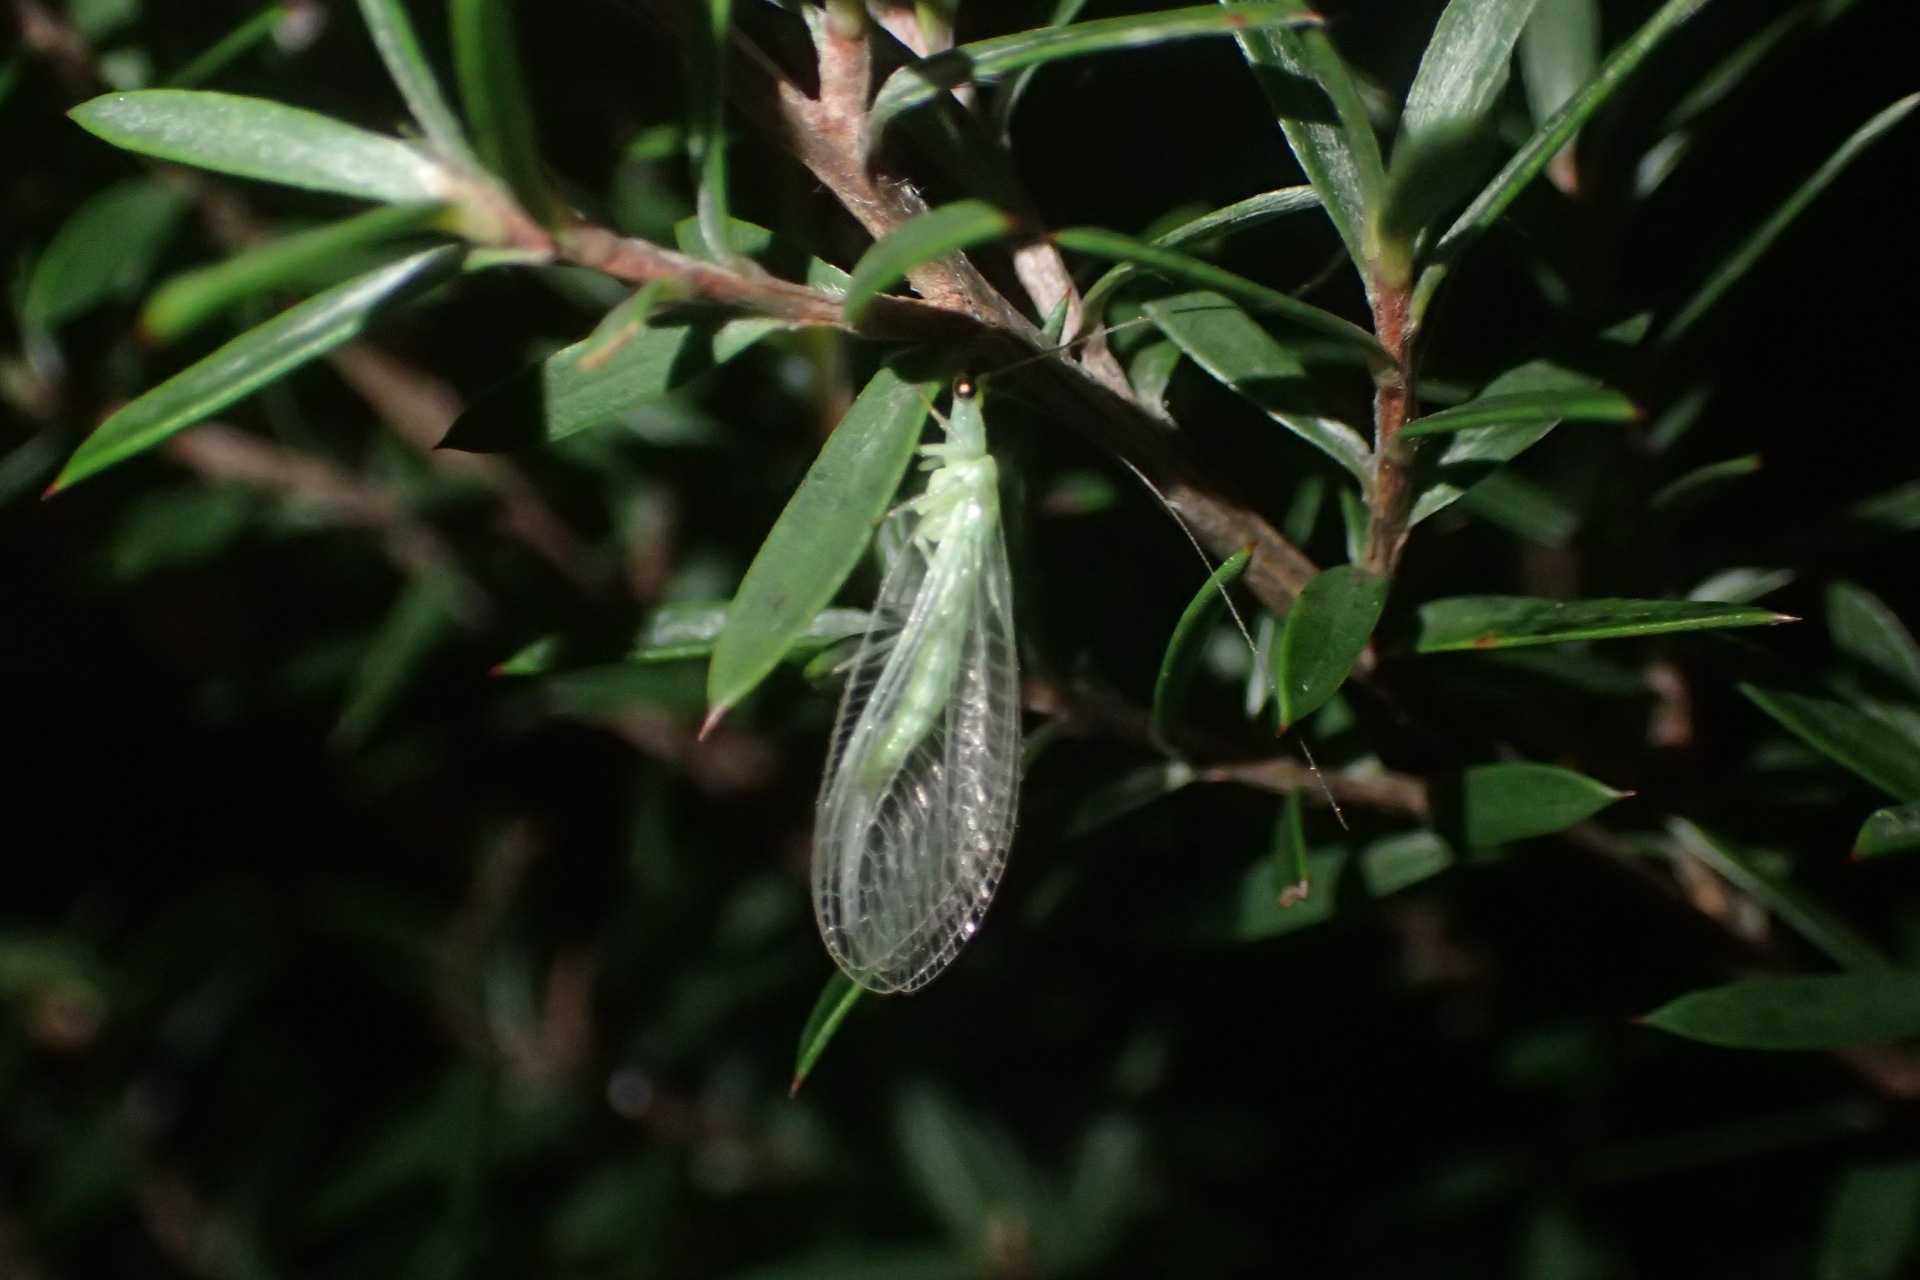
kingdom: Animalia
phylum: Arthropoda
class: Insecta
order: Neuroptera
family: Chrysopidae
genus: Mallada
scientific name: Mallada basalis
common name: Green lacewing
